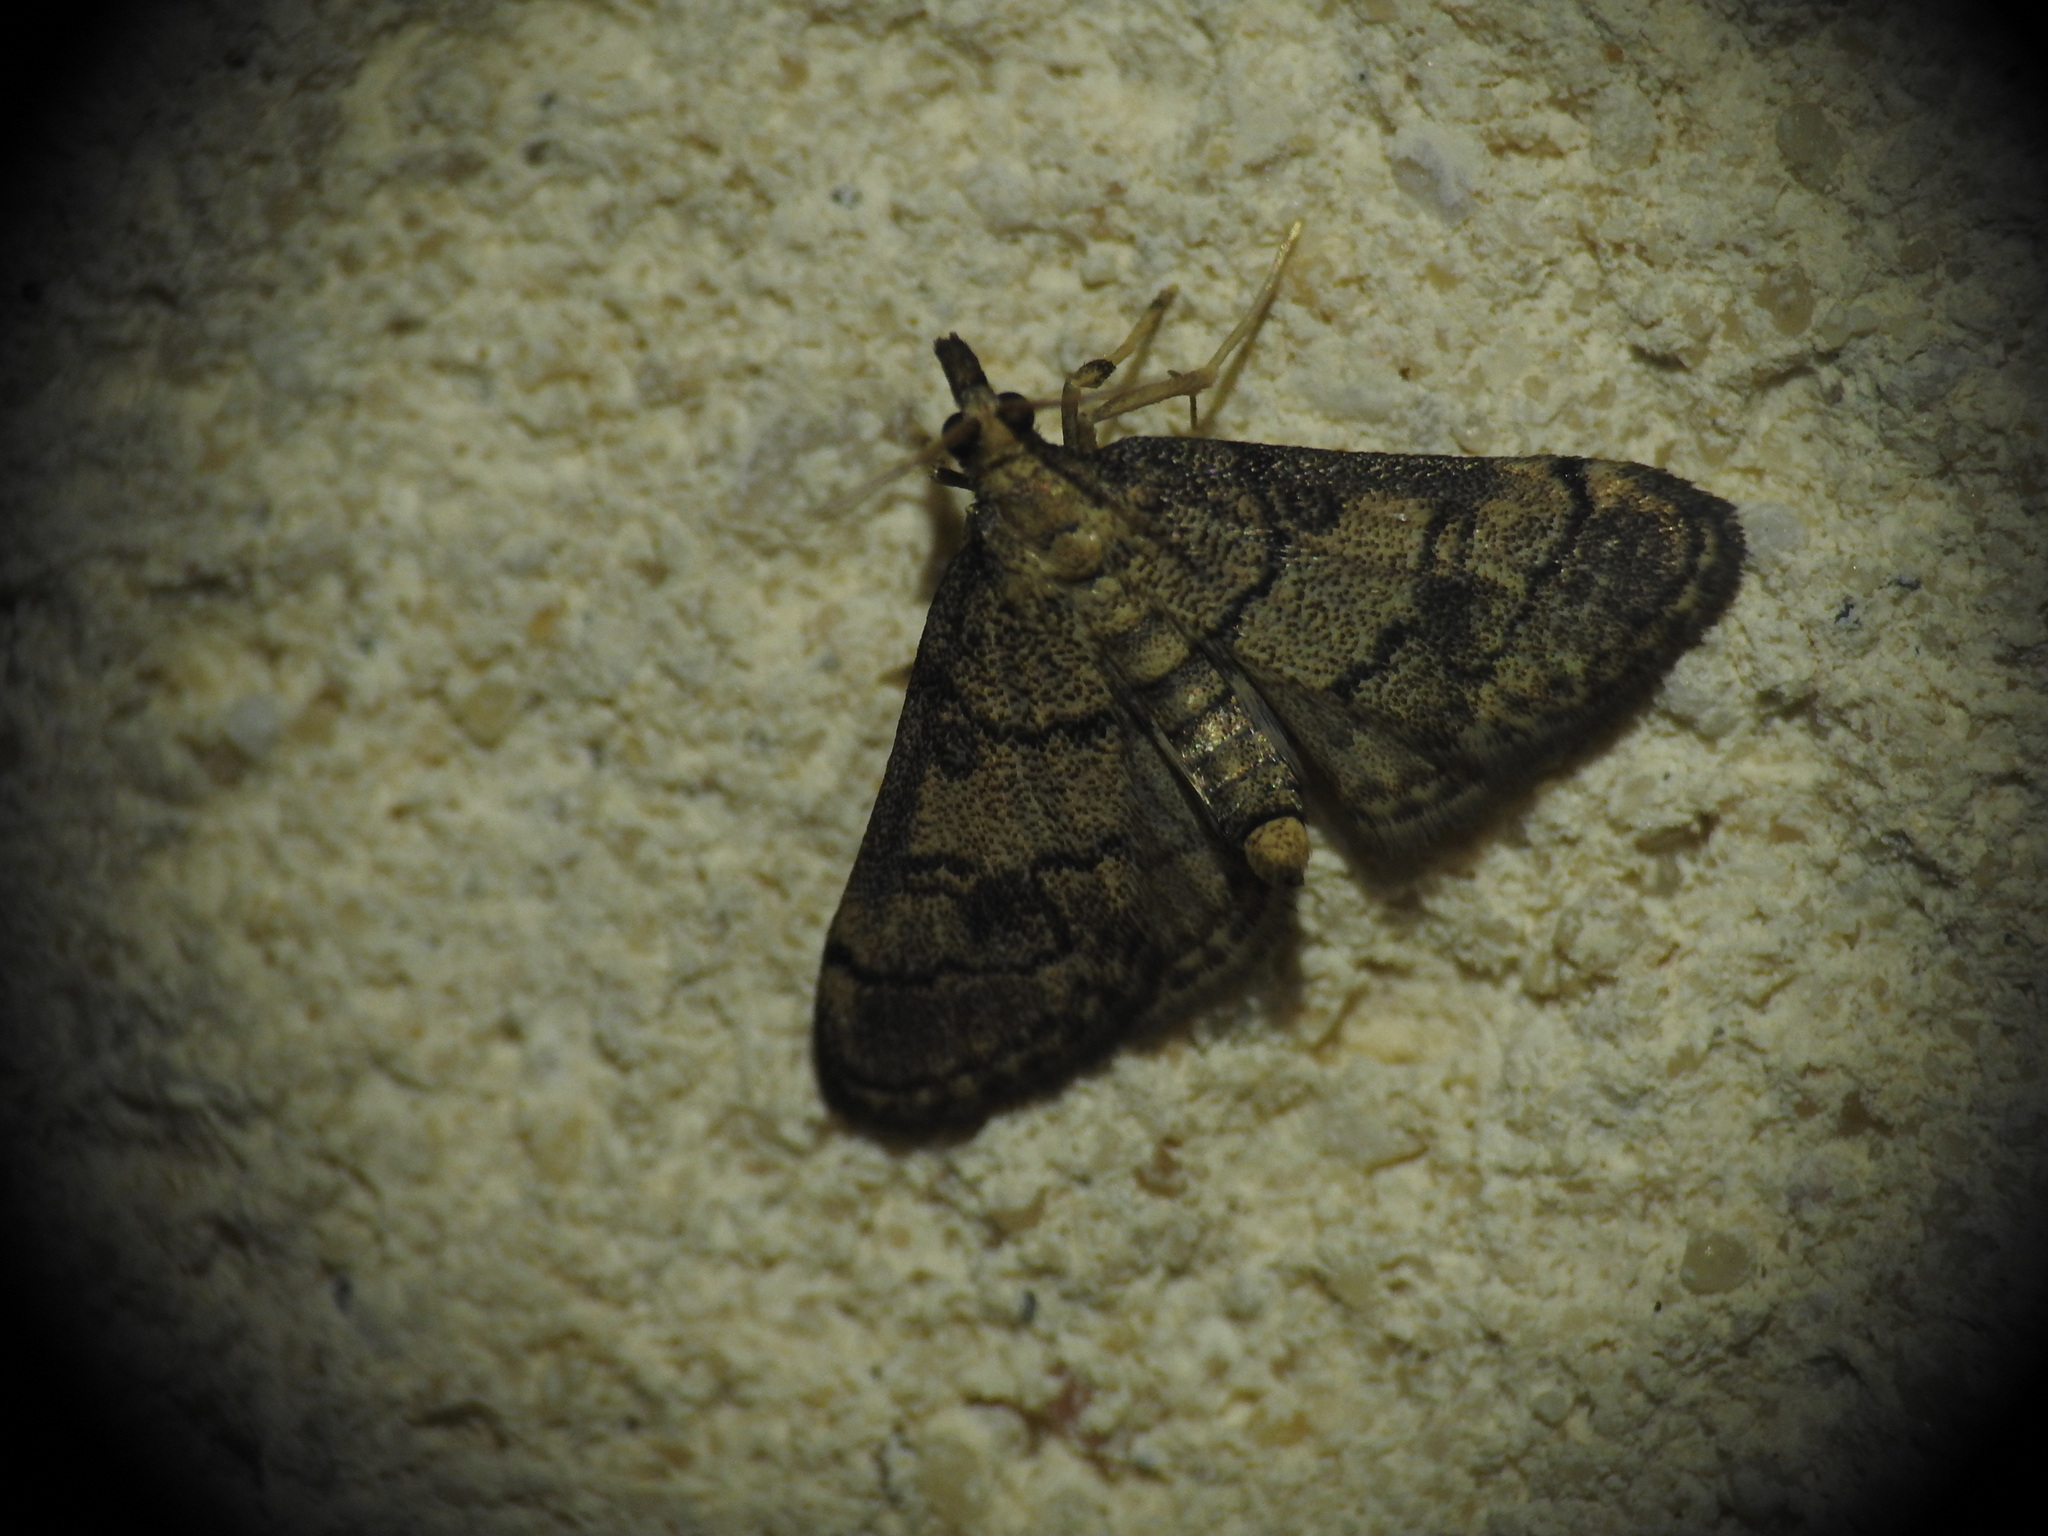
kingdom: Animalia
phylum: Arthropoda
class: Insecta
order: Lepidoptera
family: Crambidae
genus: Metasia
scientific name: Metasia cuencalis
